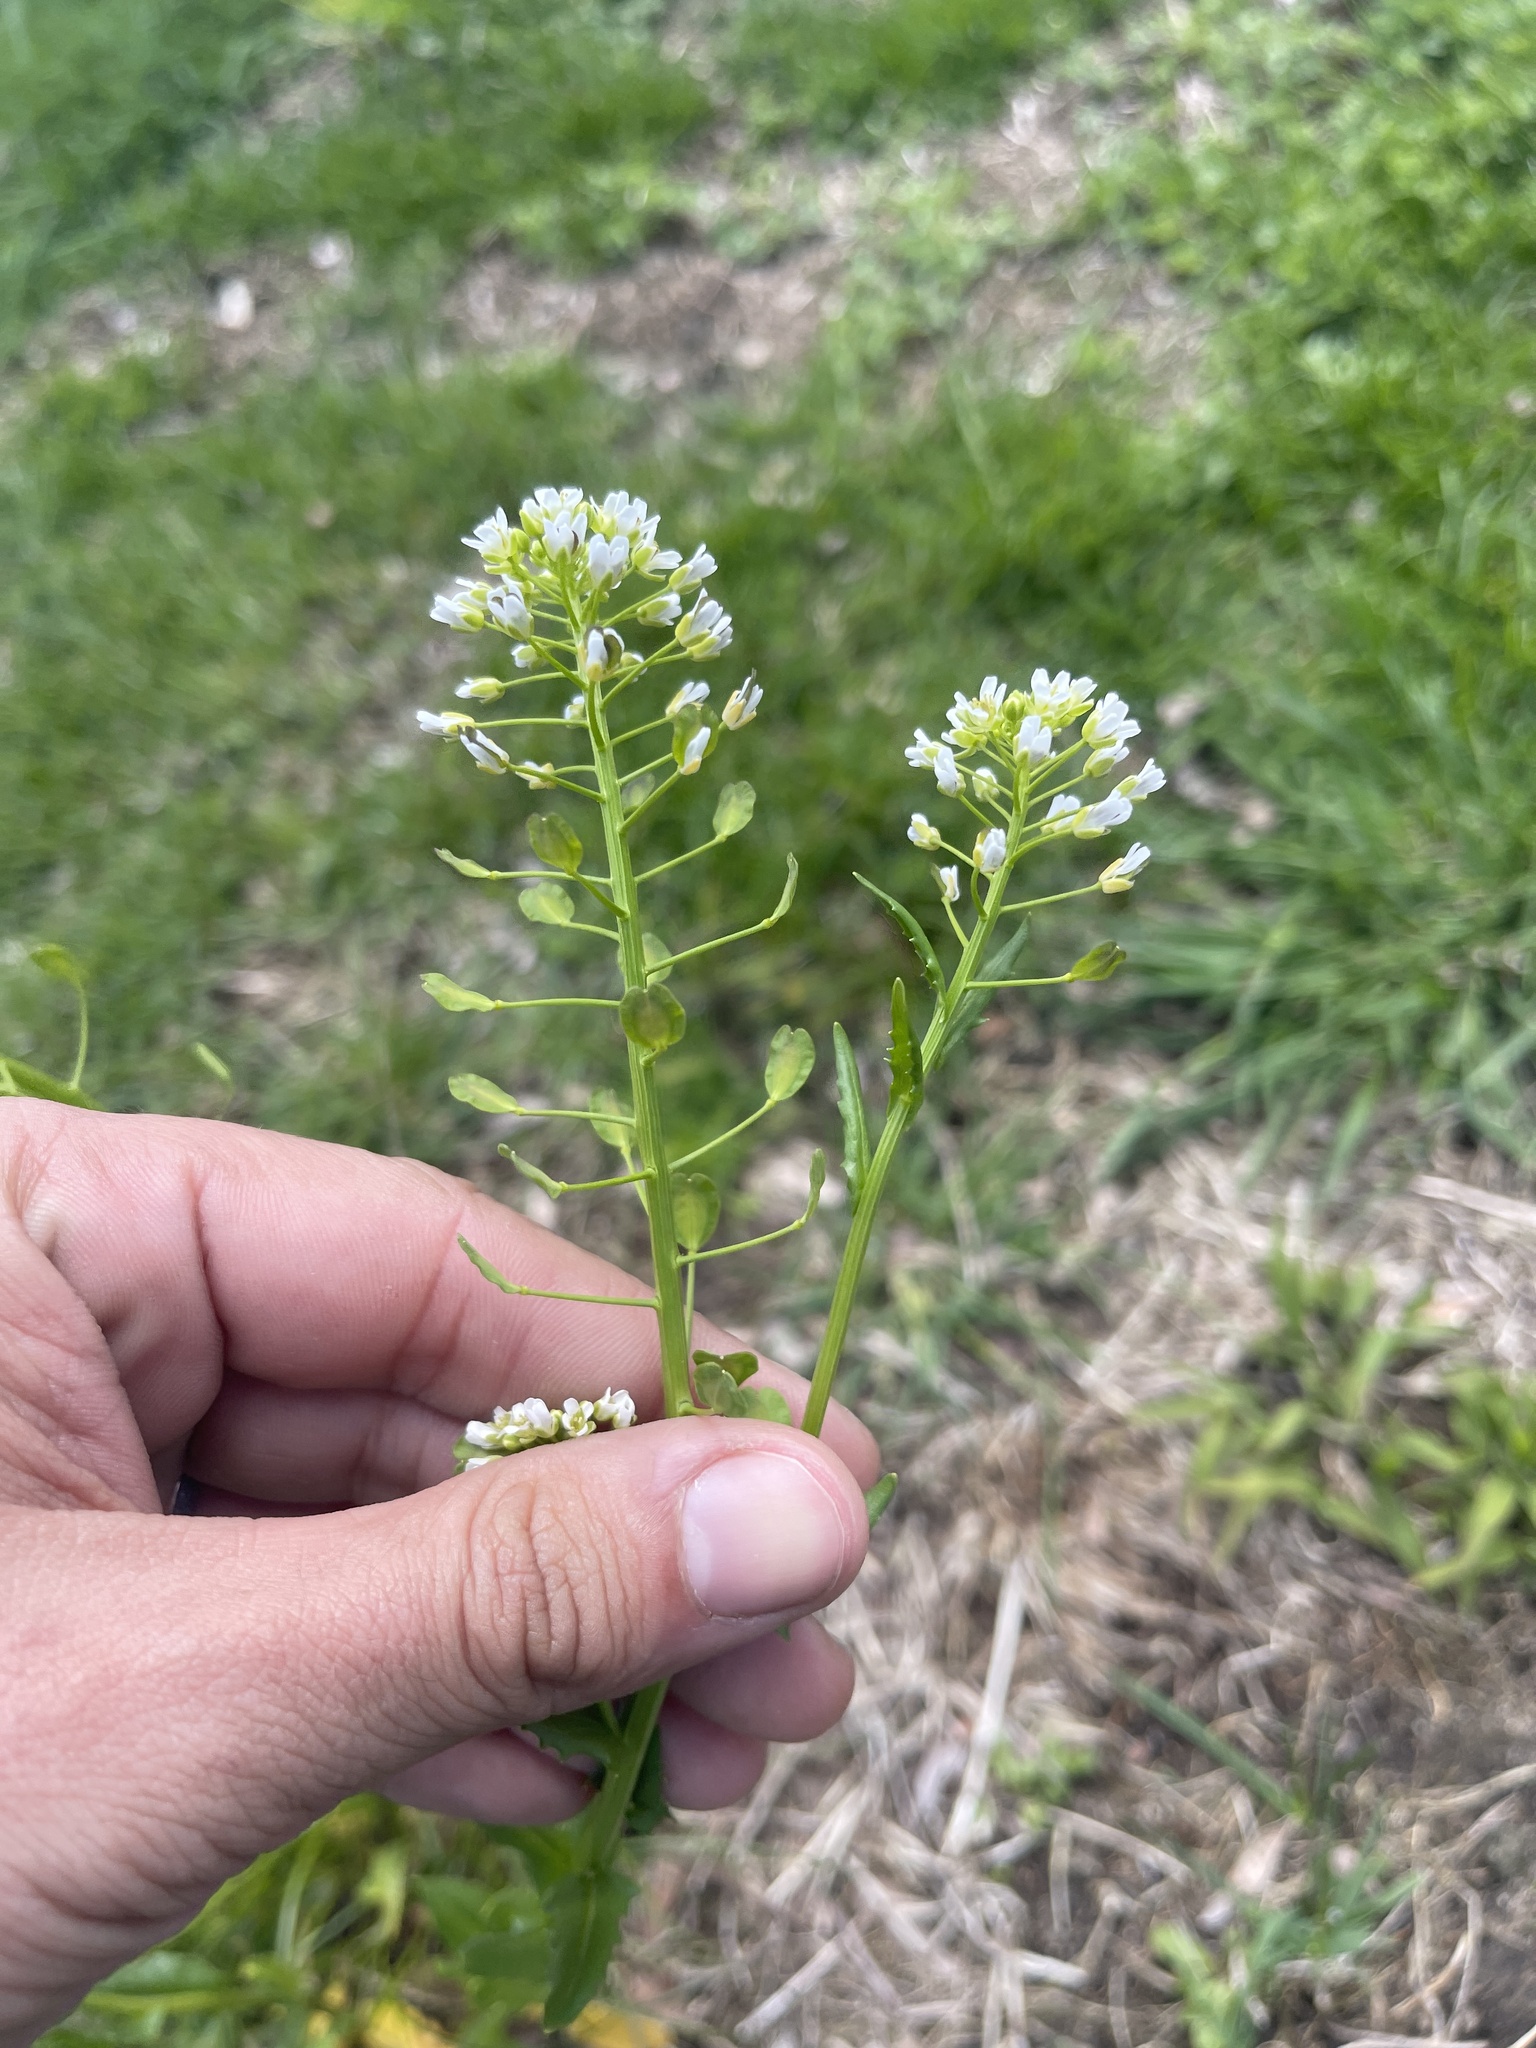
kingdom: Plantae
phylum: Tracheophyta
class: Magnoliopsida
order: Brassicales
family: Brassicaceae
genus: Thlaspi
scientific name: Thlaspi arvense
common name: Field pennycress
